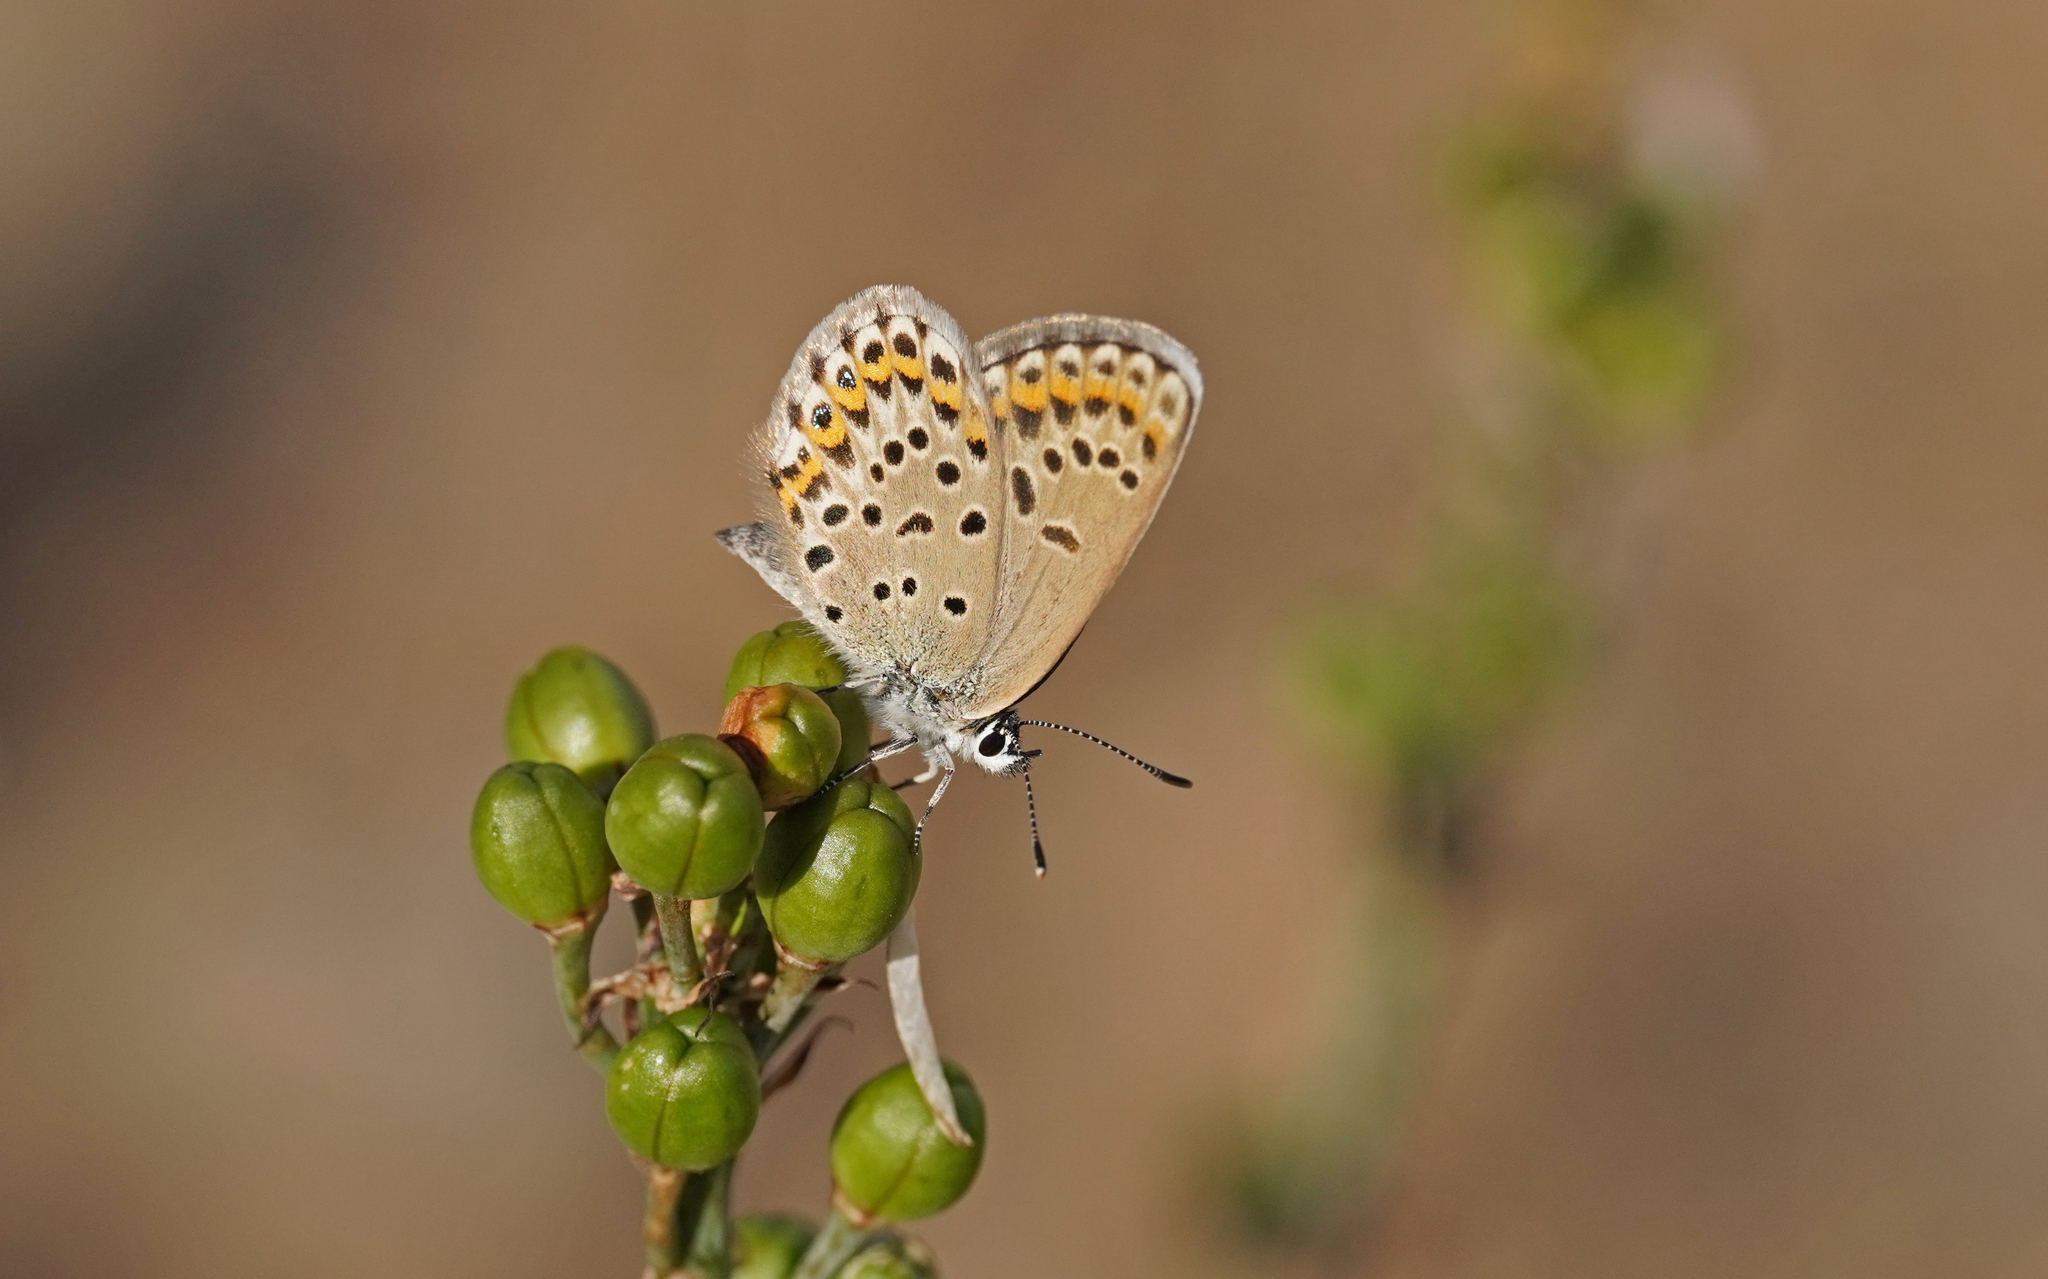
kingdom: Animalia
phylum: Arthropoda
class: Insecta
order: Lepidoptera
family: Lycaenidae
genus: Lycaeides
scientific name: Lycaeides idas
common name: Northern blue
